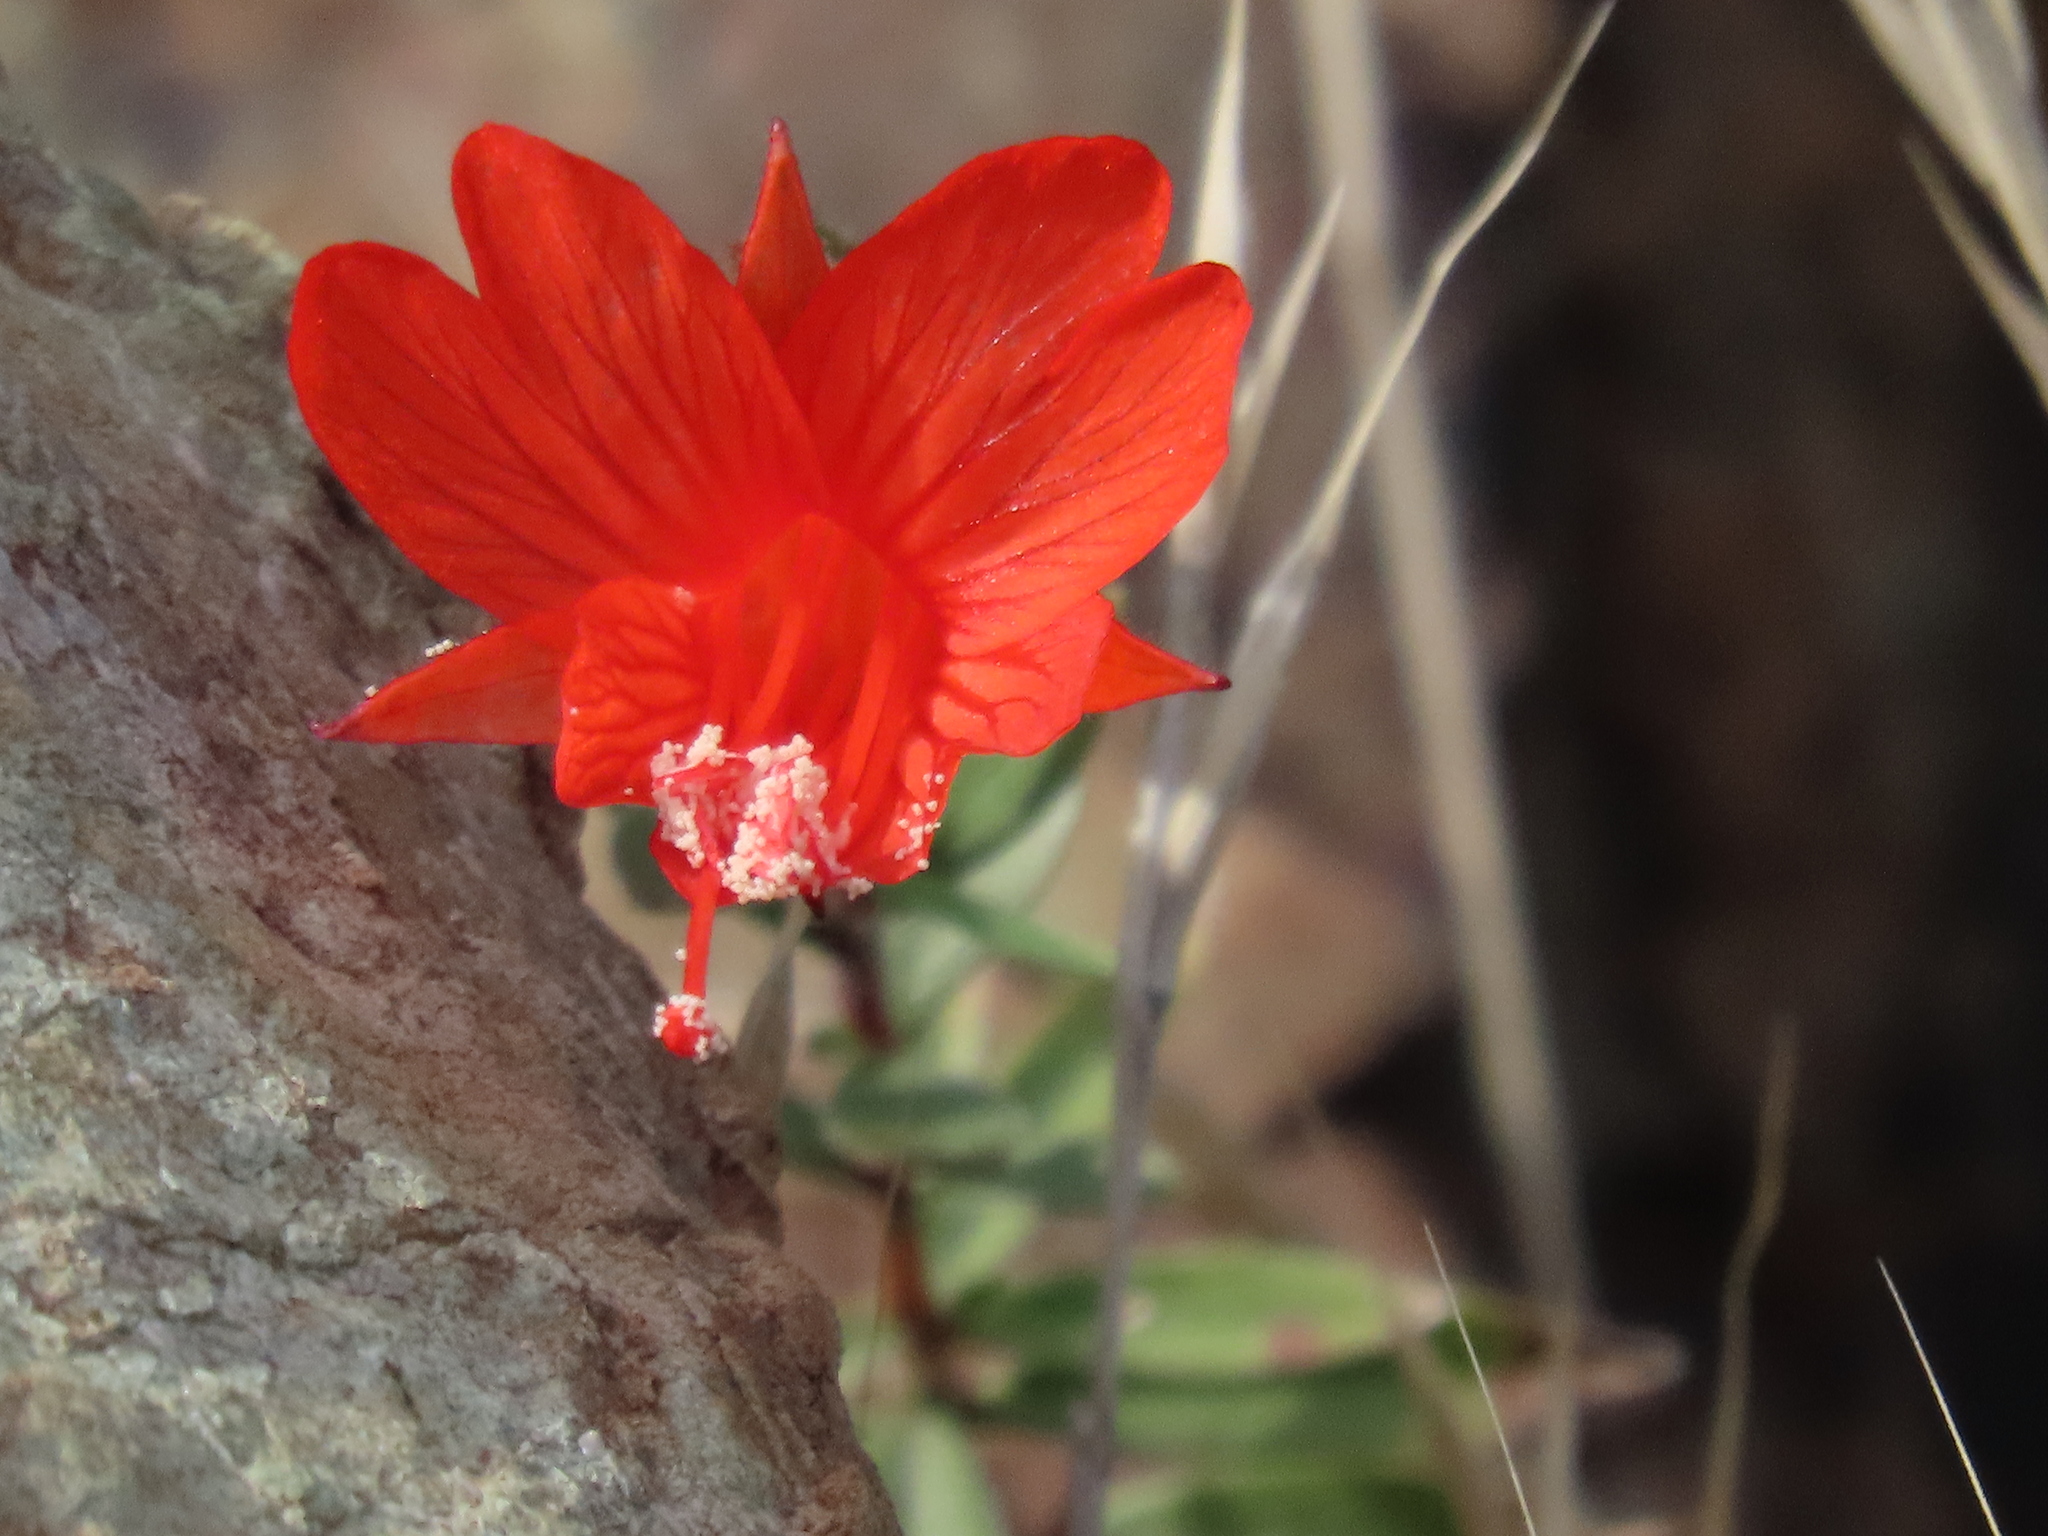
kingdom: Plantae
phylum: Tracheophyta
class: Magnoliopsida
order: Myrtales
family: Onagraceae
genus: Epilobium
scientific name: Epilobium canum
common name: California-fuchsia
